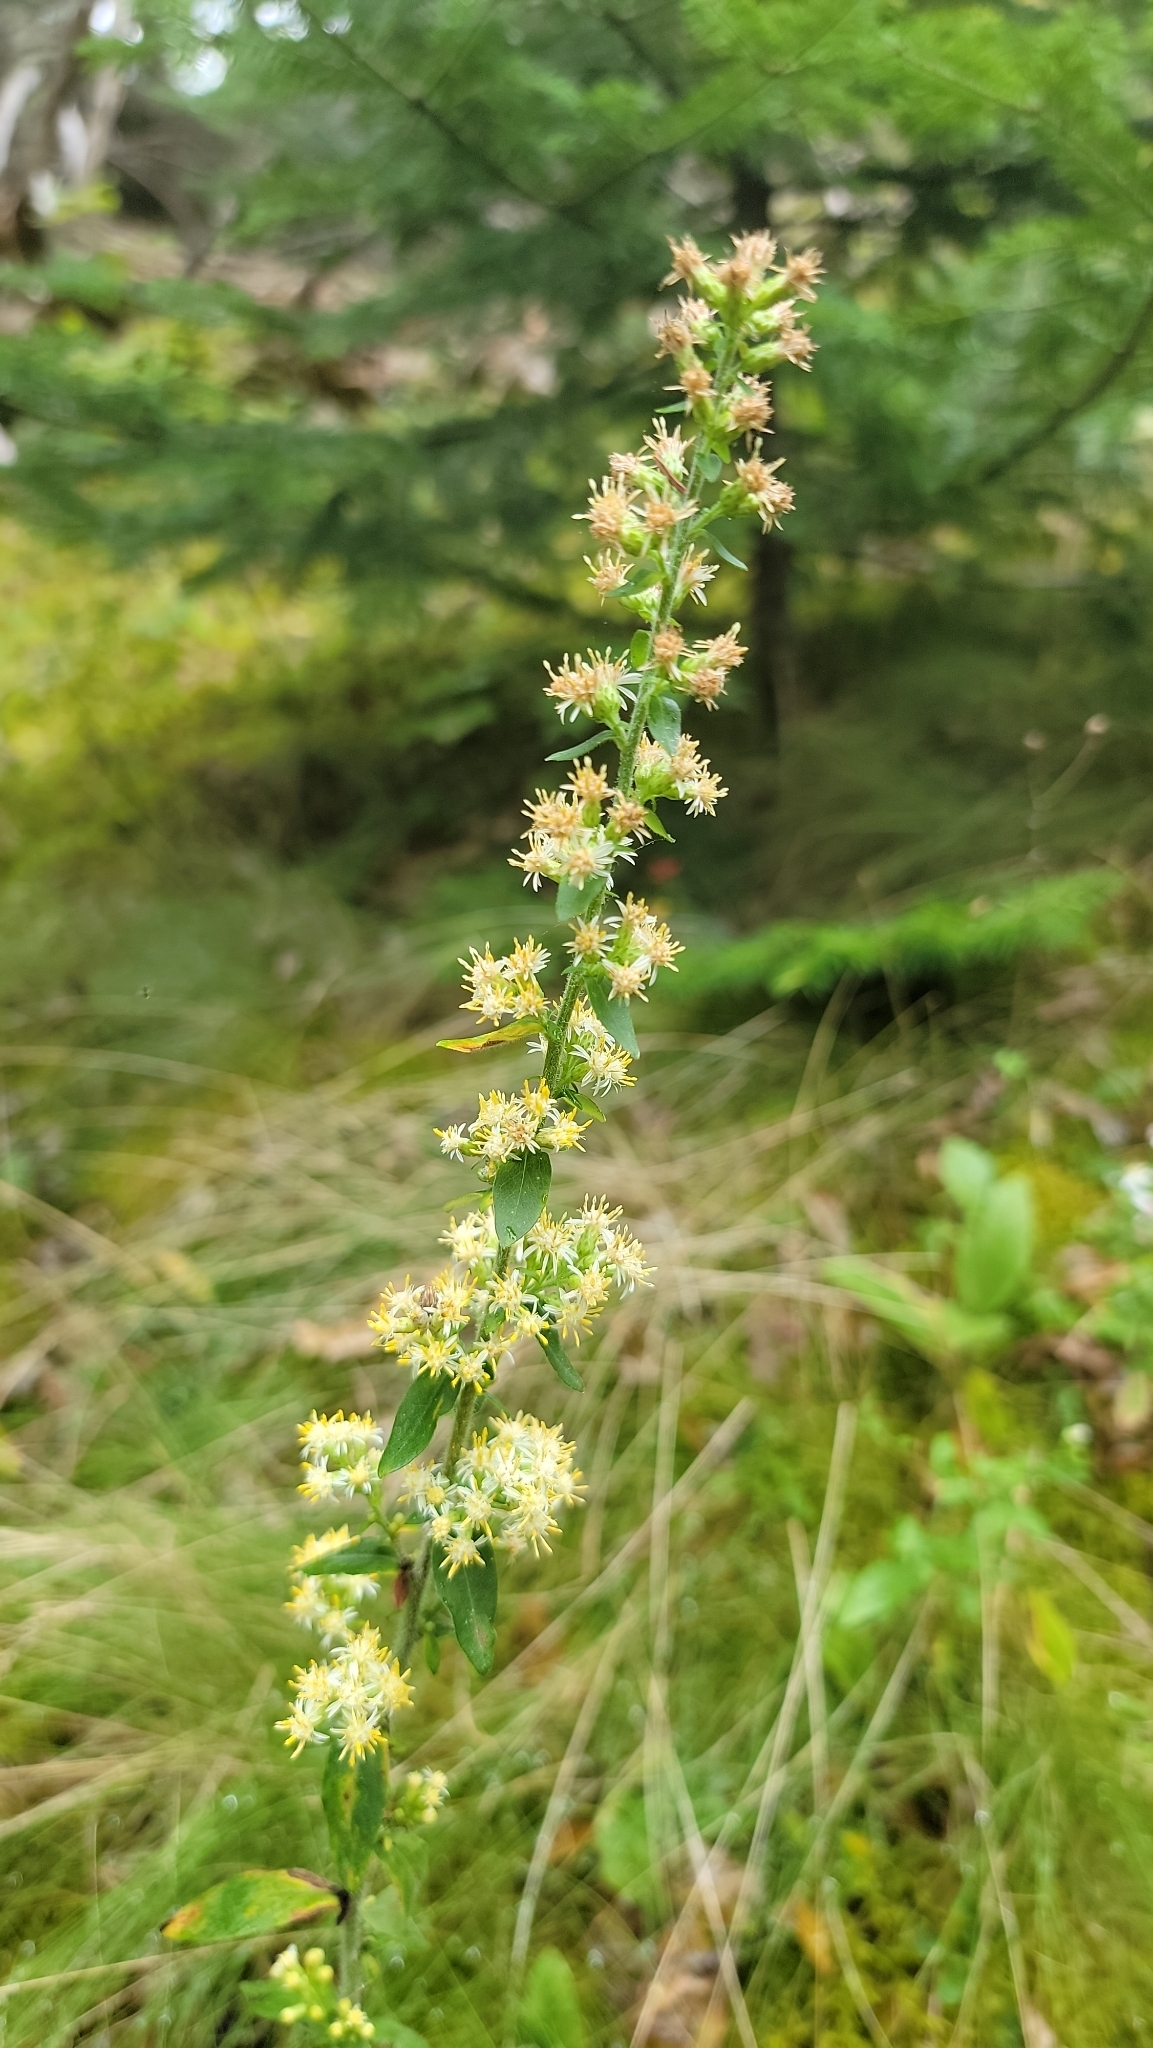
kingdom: Plantae
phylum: Tracheophyta
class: Magnoliopsida
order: Asterales
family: Asteraceae
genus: Solidago
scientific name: Solidago bicolor
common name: Silverrod
